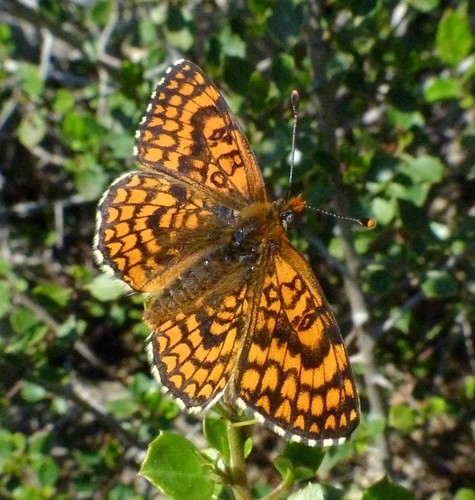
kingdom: Animalia
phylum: Arthropoda
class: Insecta
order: Lepidoptera
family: Nymphalidae
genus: Melitaea
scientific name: Melitaea deione
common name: Provençal fritillary
